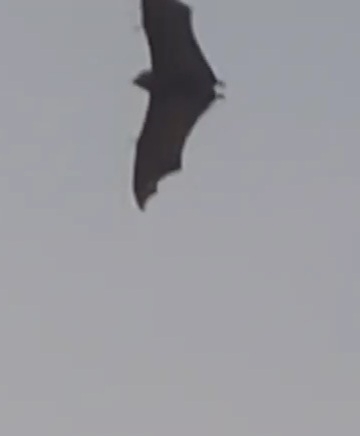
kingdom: Animalia
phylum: Chordata
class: Mammalia
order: Chiroptera
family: Pteropodidae
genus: Pteropus
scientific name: Pteropus poliocephalus
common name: Gray-headed flying fox
